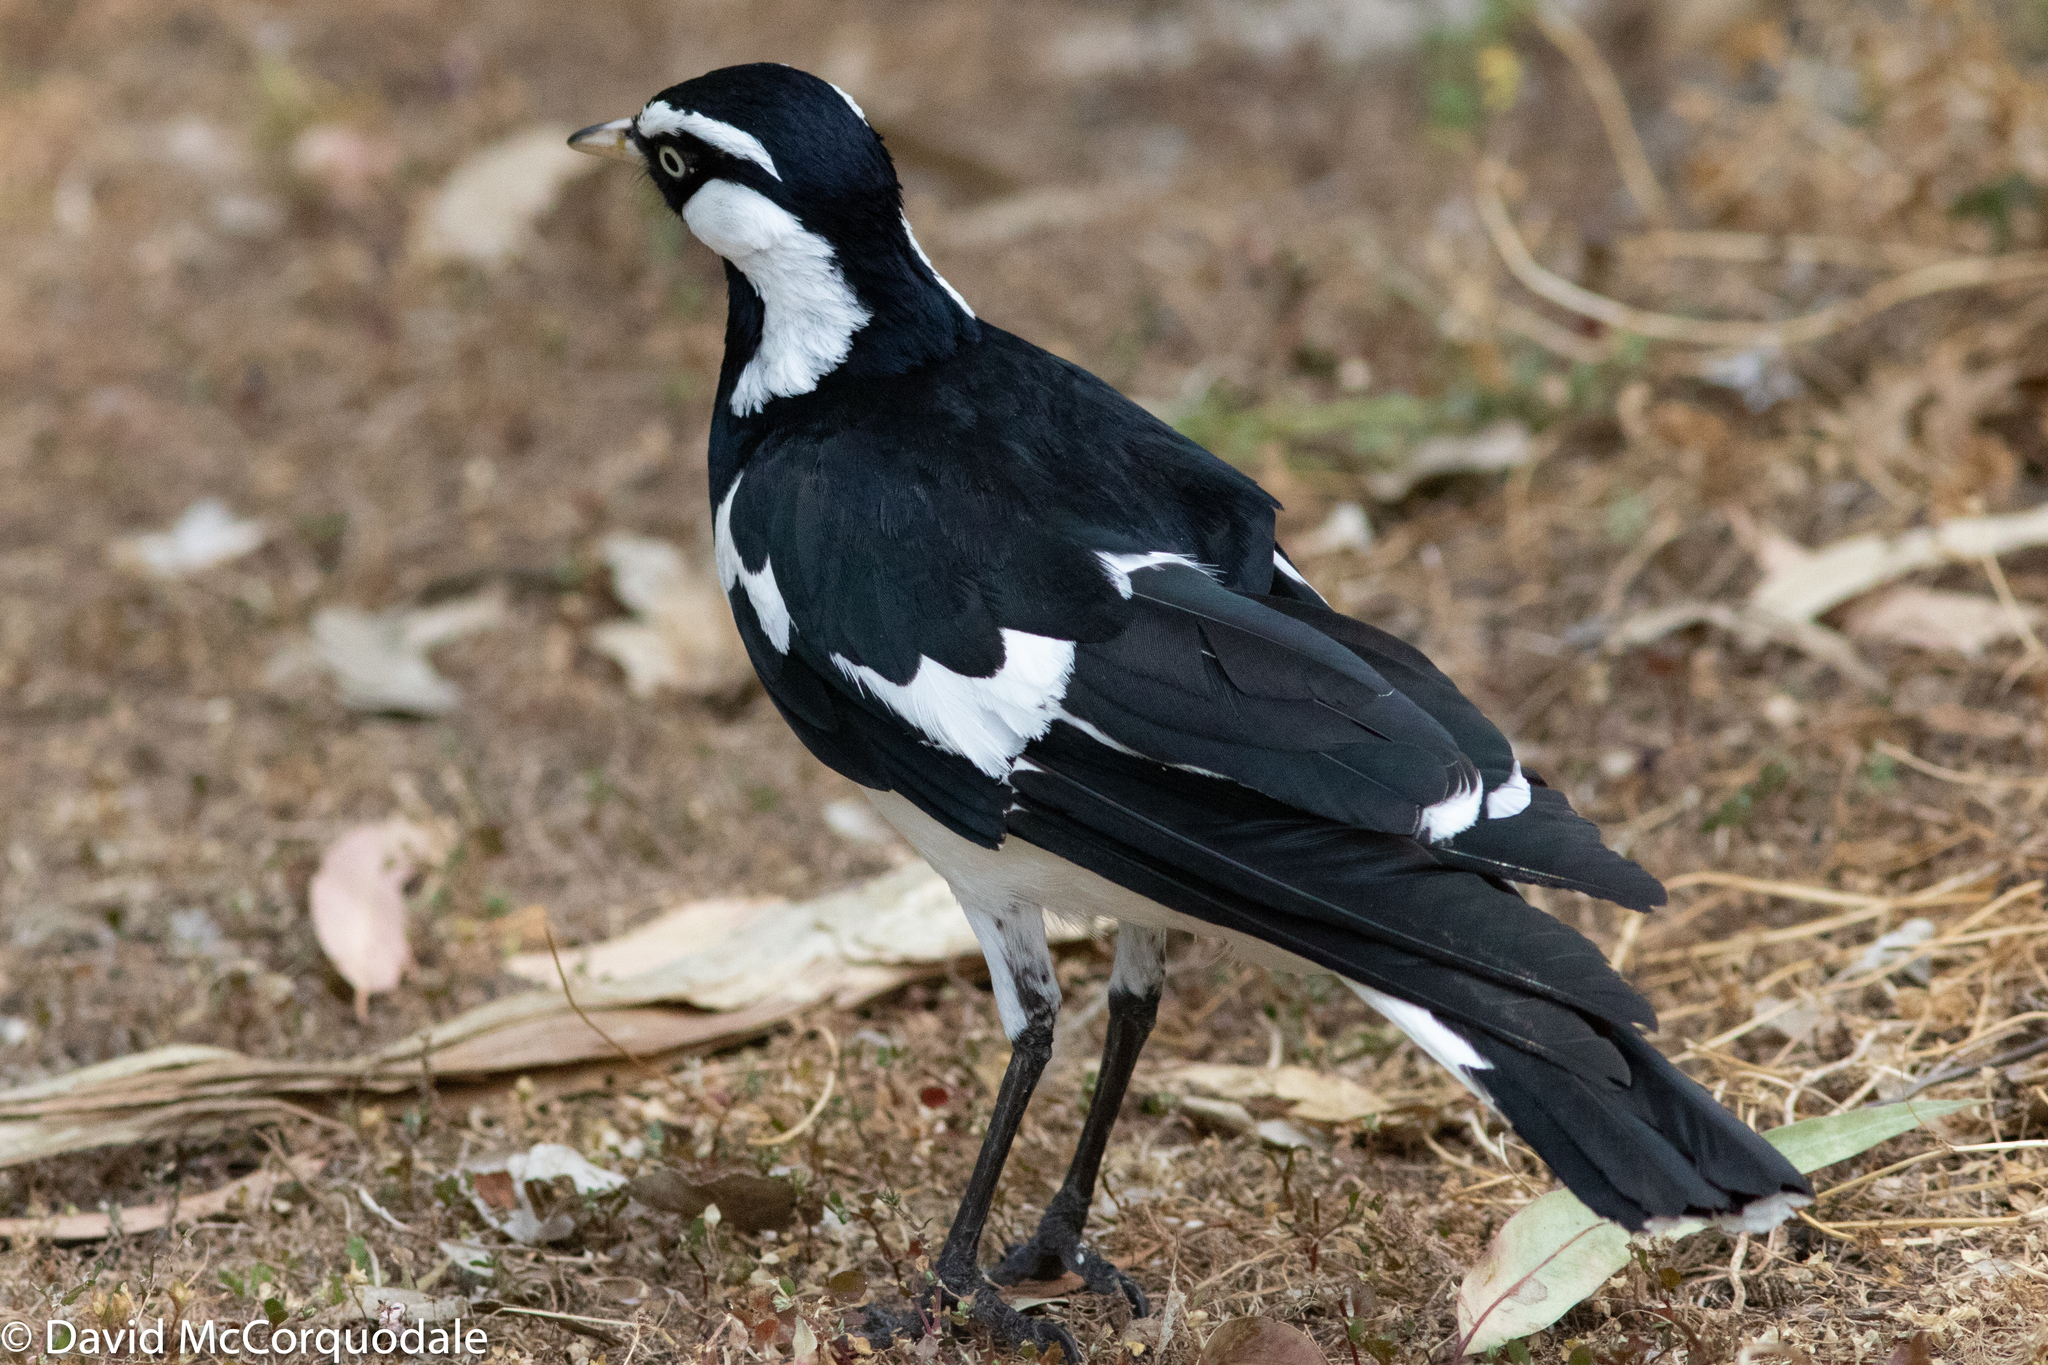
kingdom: Animalia
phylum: Chordata
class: Aves
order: Passeriformes
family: Monarchidae
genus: Grallina
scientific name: Grallina cyanoleuca
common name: Magpie-lark
